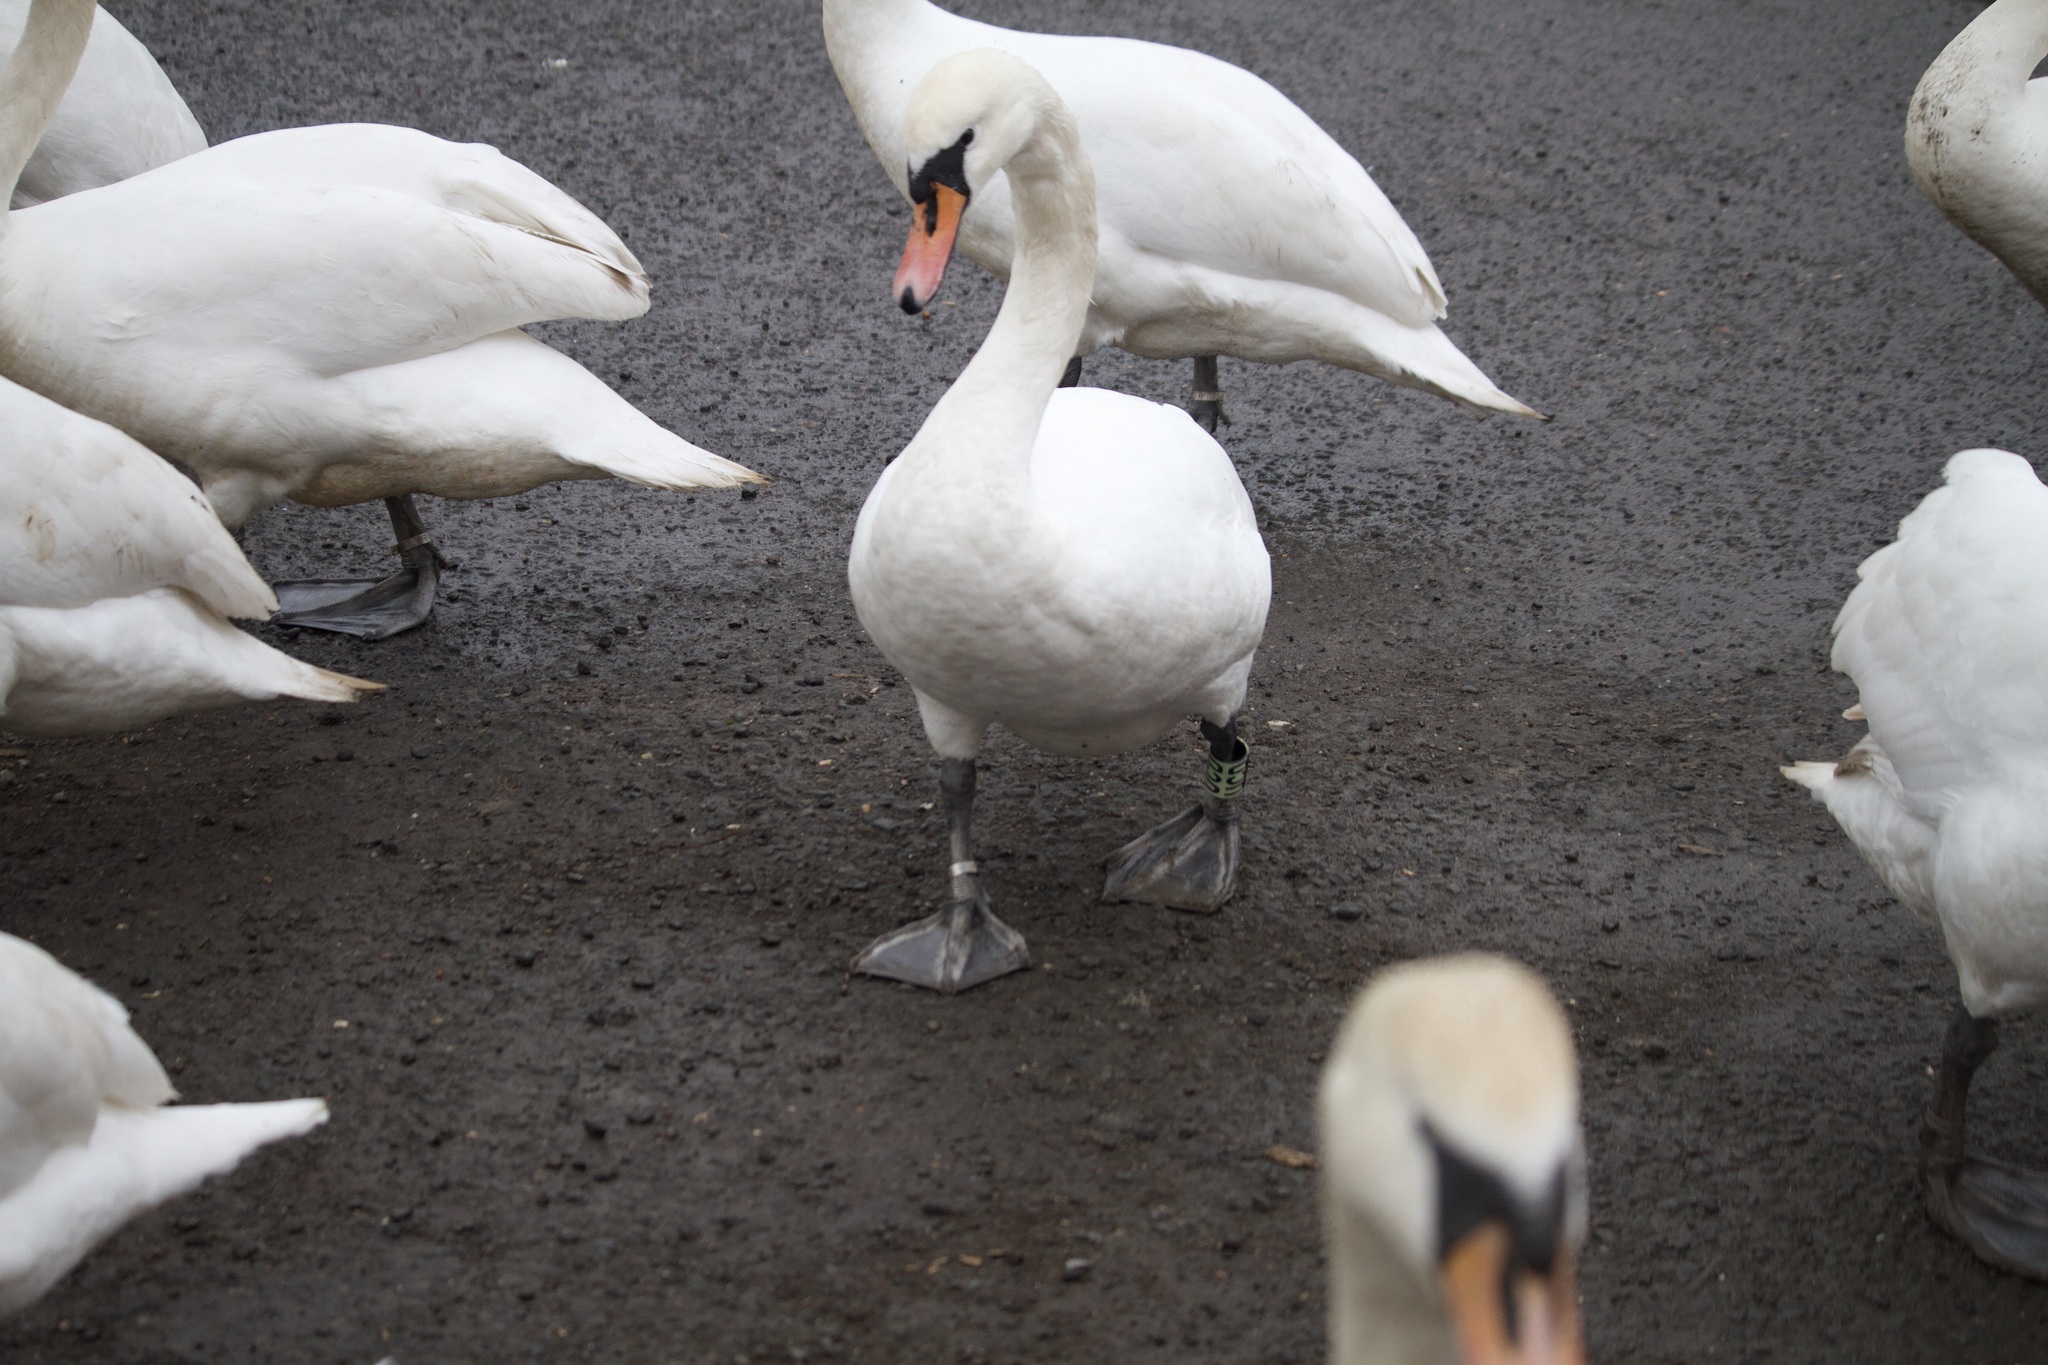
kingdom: Animalia
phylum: Chordata
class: Aves
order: Anseriformes
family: Anatidae
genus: Cygnus
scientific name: Cygnus olor
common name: Mute swan
